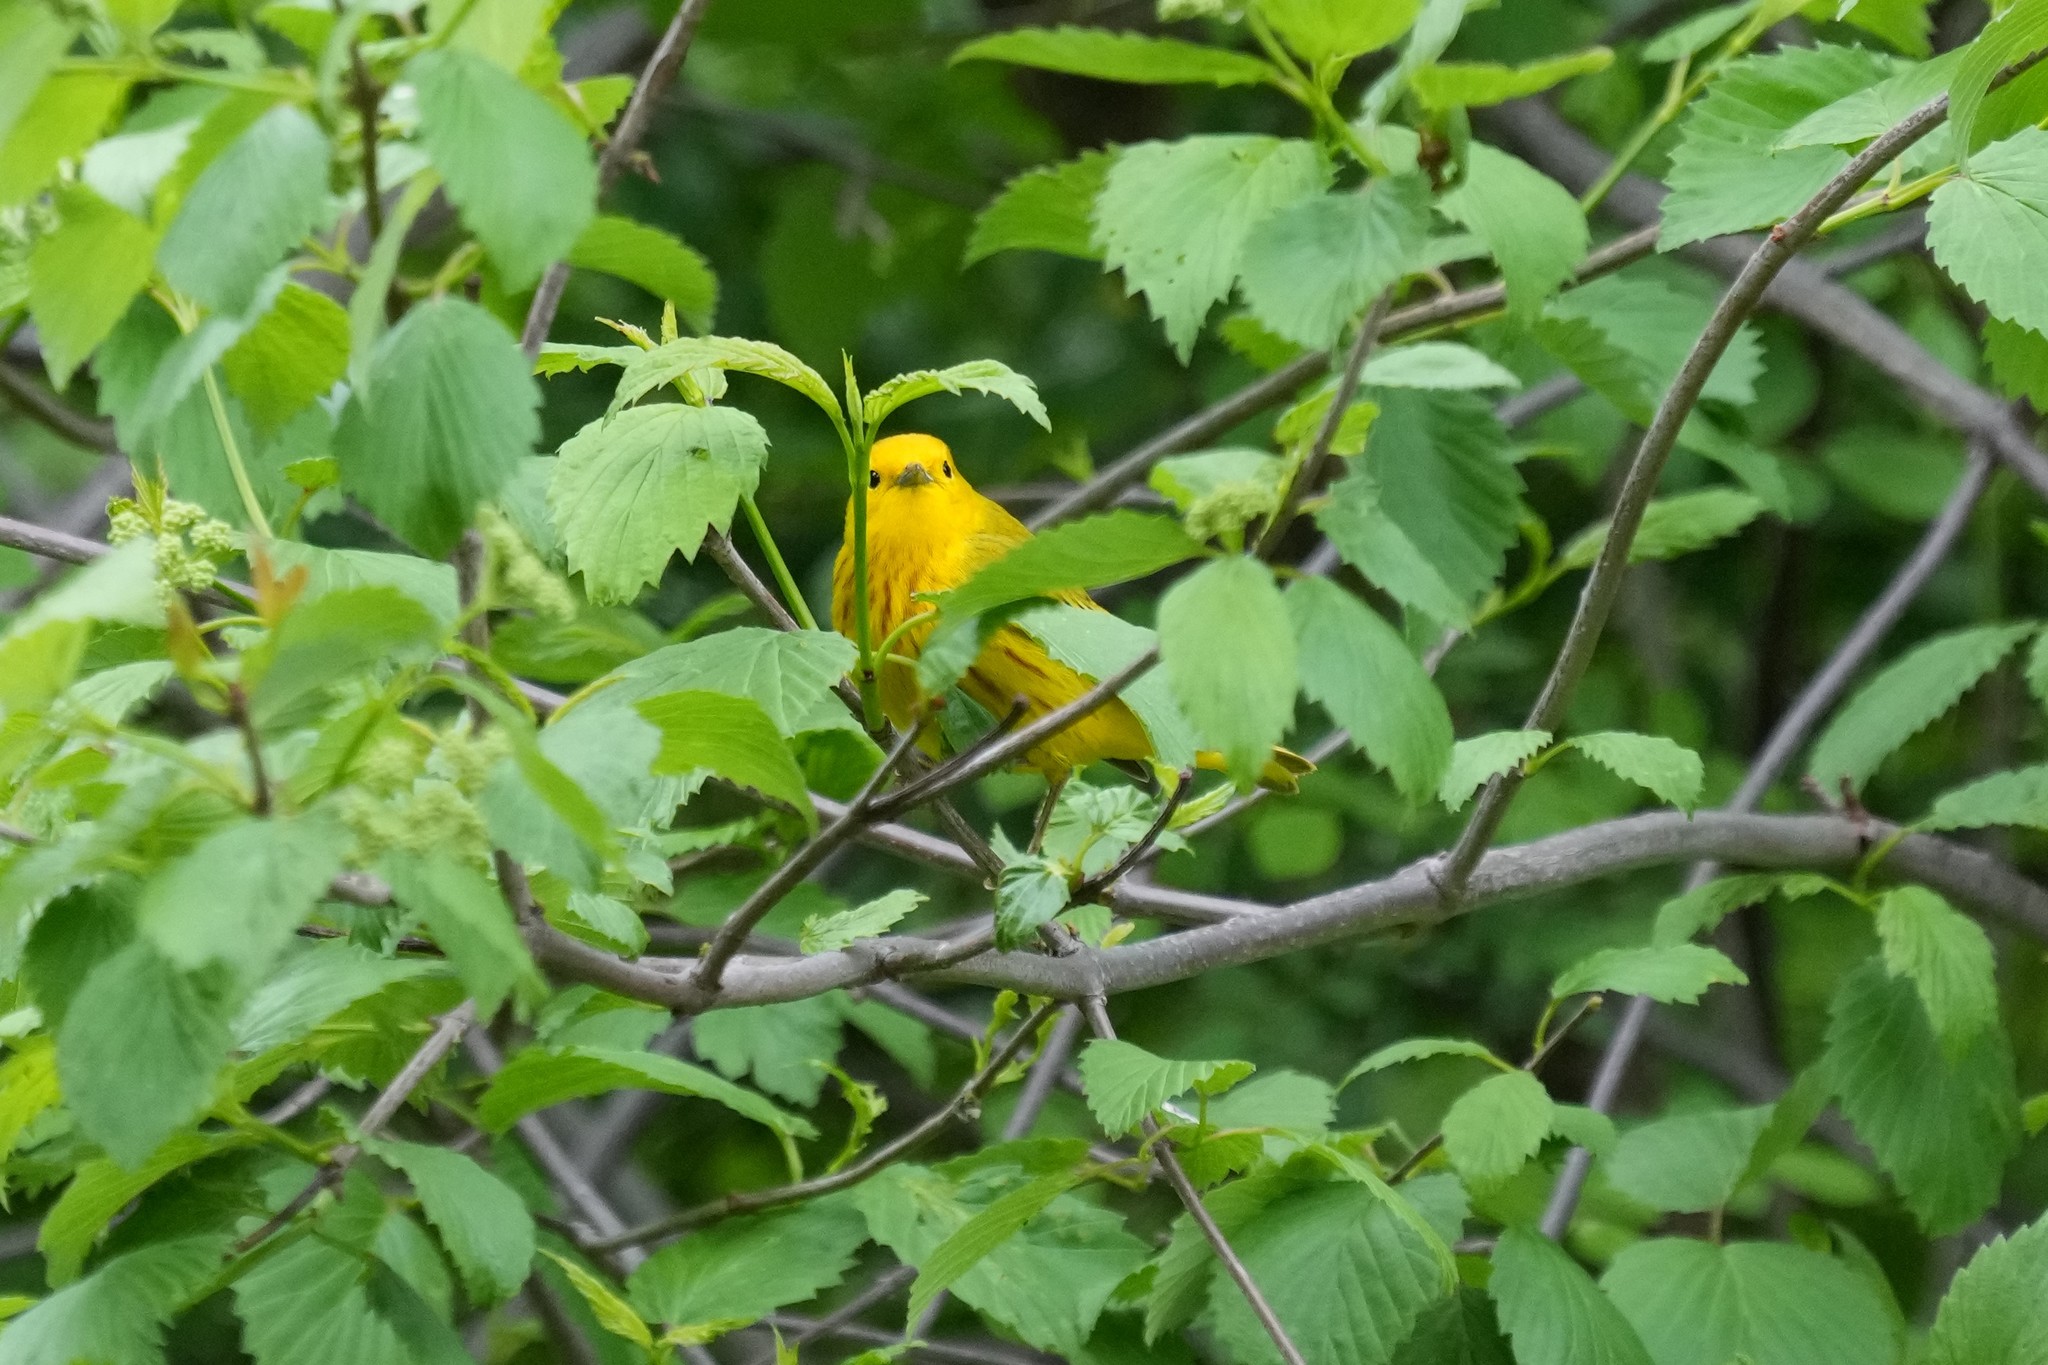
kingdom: Animalia
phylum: Chordata
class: Aves
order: Passeriformes
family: Parulidae
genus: Setophaga
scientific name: Setophaga petechia
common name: Yellow warbler
